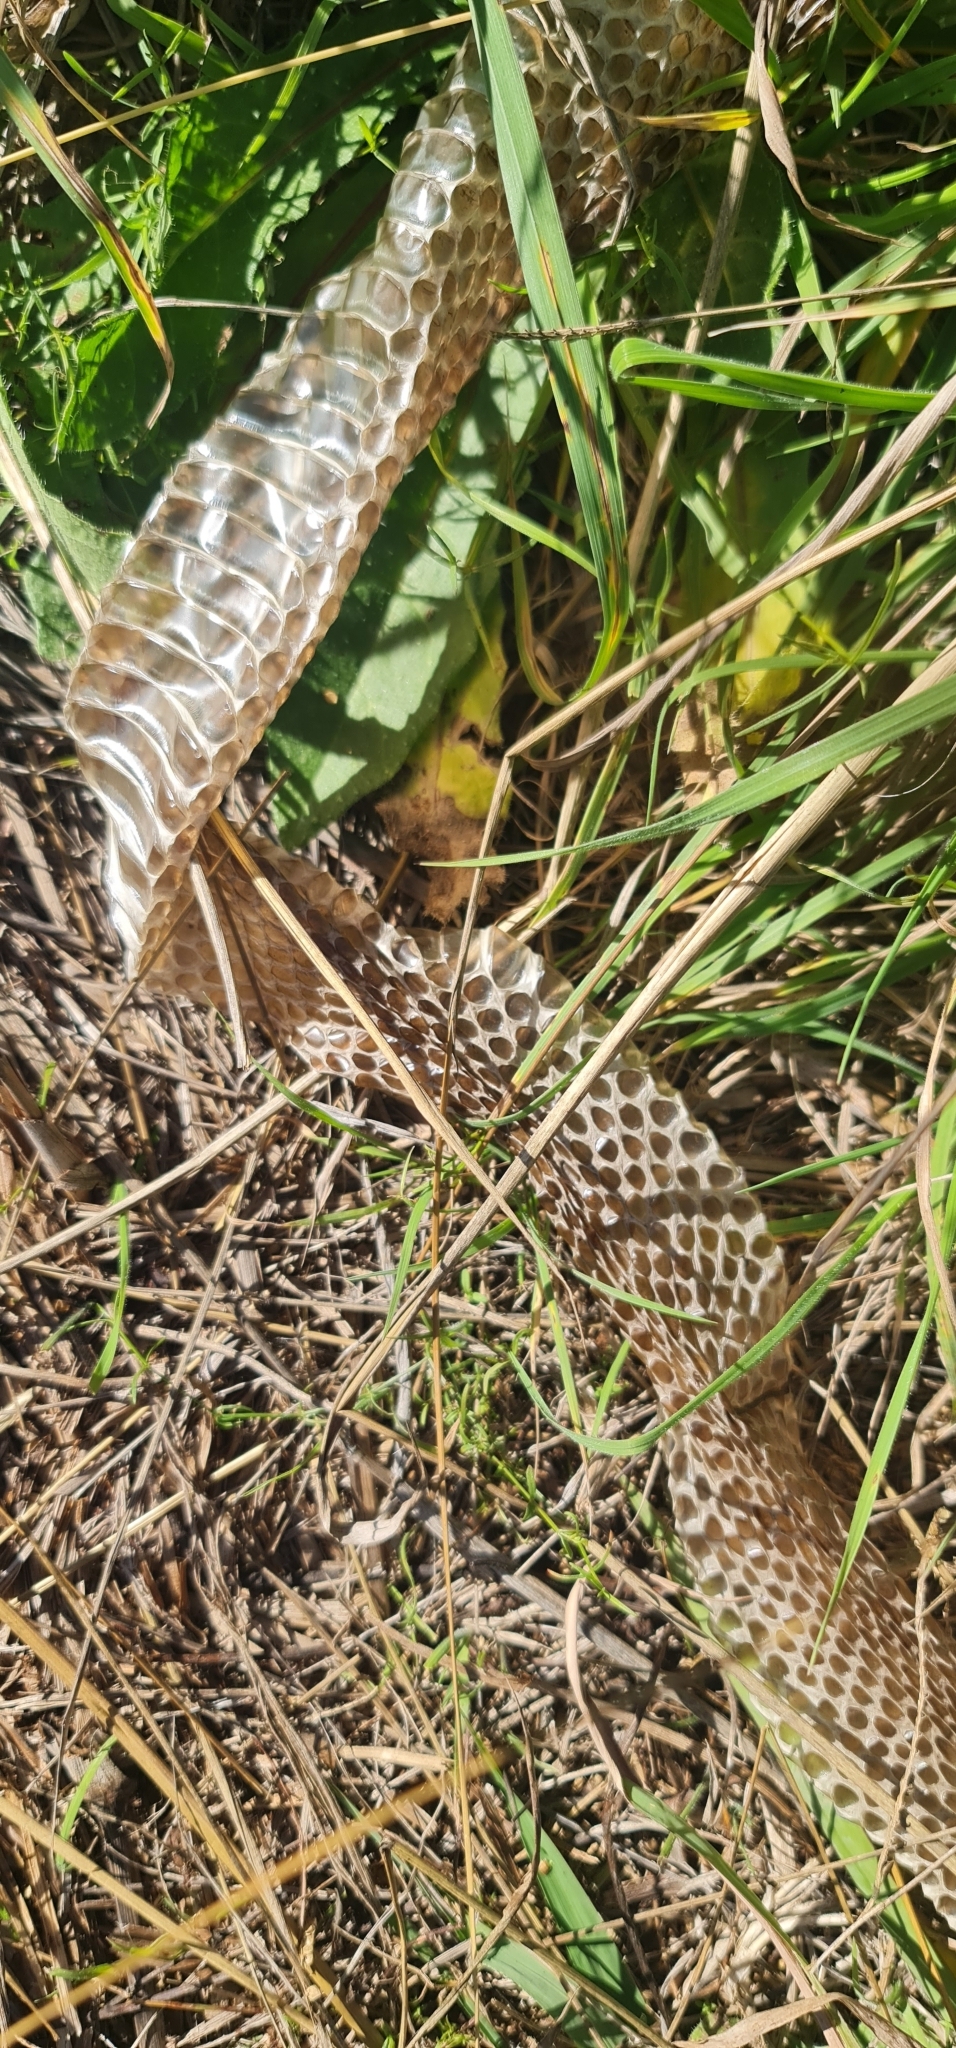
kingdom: Animalia
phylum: Chordata
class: Squamata
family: Elapidae
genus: Notechis
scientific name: Notechis scutatus
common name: Mainland tiger snake
